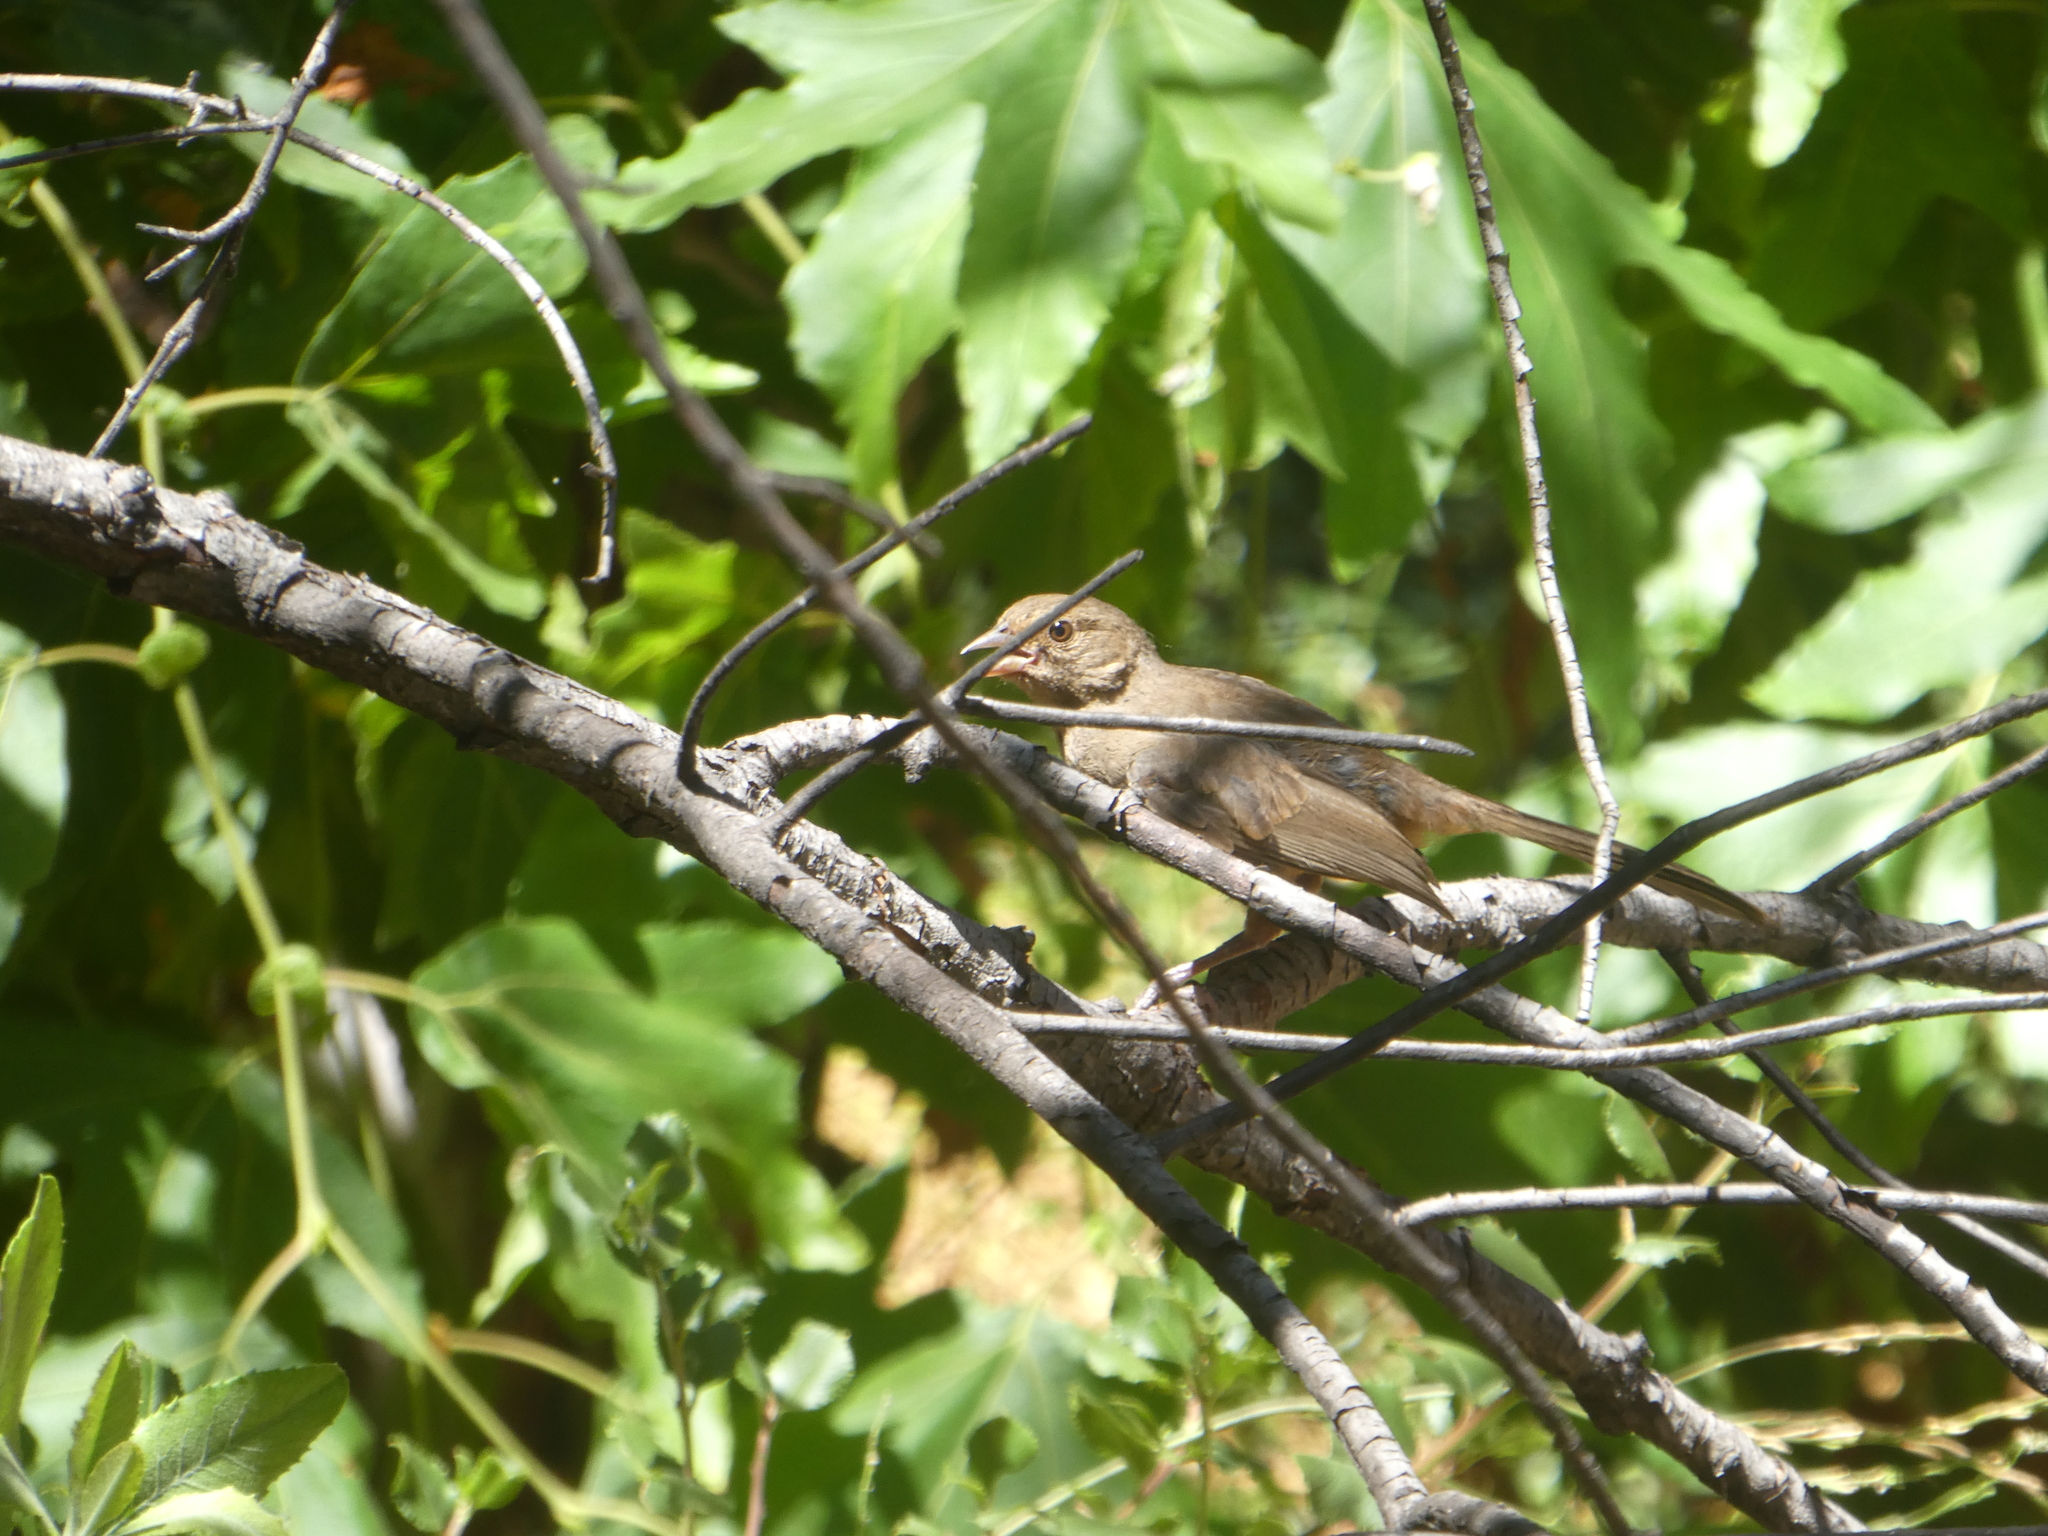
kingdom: Animalia
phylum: Chordata
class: Aves
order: Passeriformes
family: Passerellidae
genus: Melozone
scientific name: Melozone crissalis
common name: California towhee
